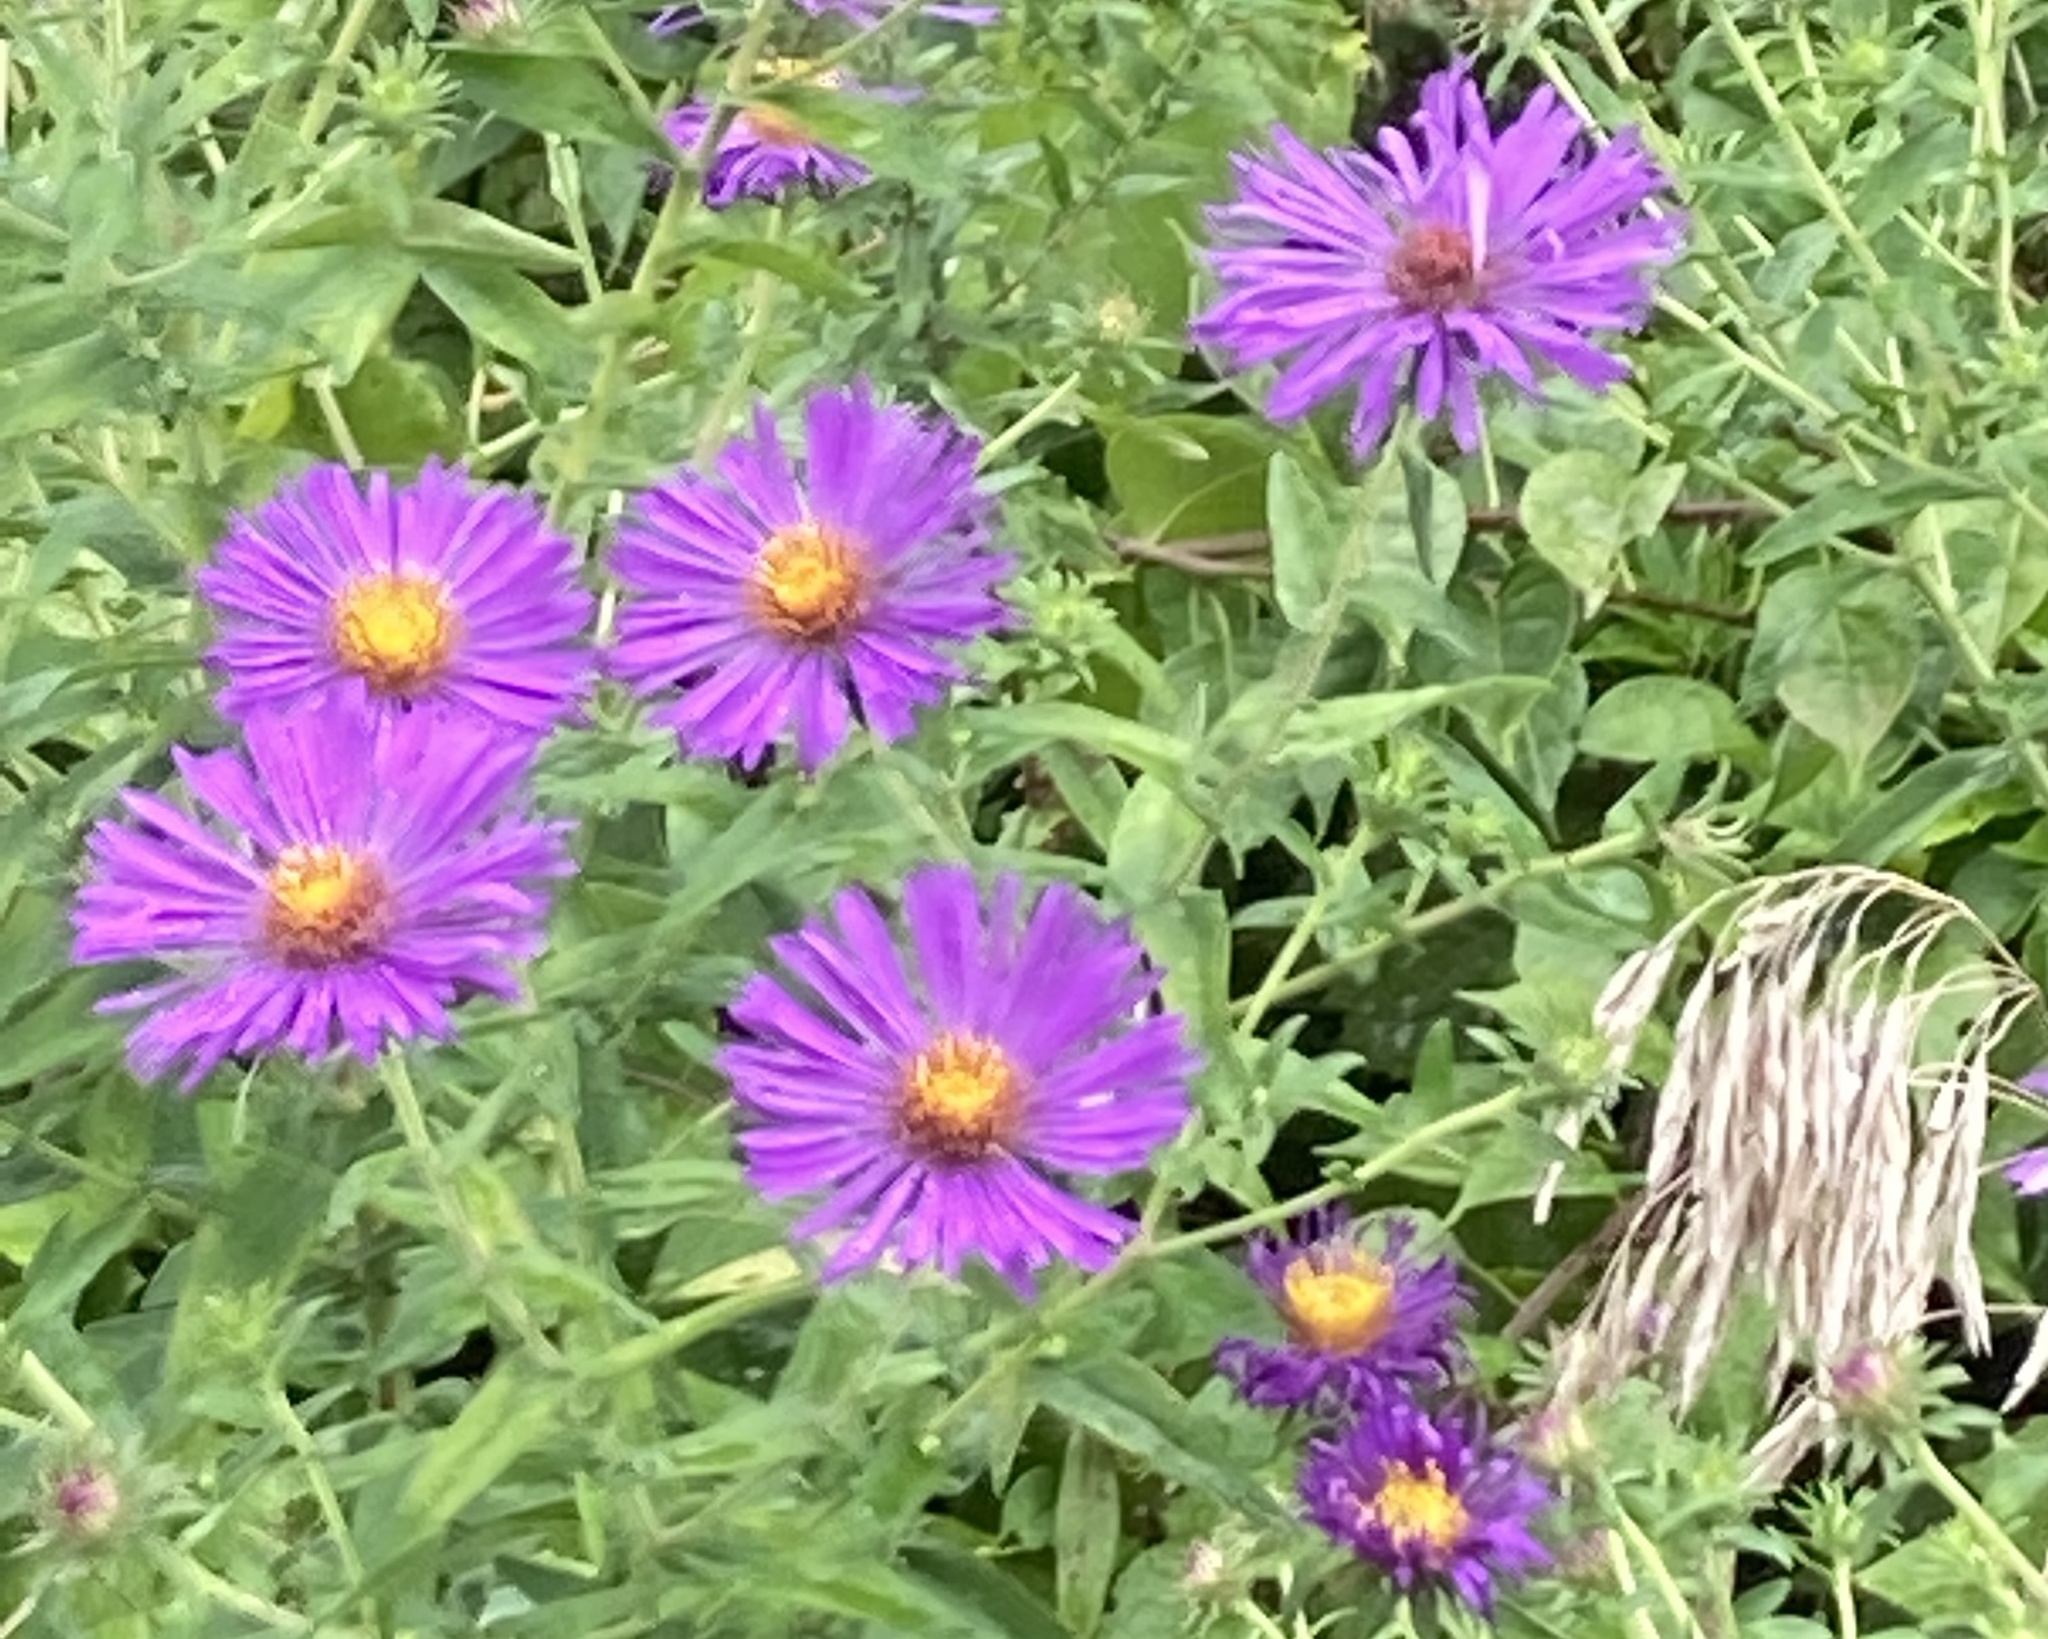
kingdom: Plantae
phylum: Tracheophyta
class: Magnoliopsida
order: Asterales
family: Asteraceae
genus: Symphyotrichum
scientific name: Symphyotrichum novae-angliae
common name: Michaelmas daisy
